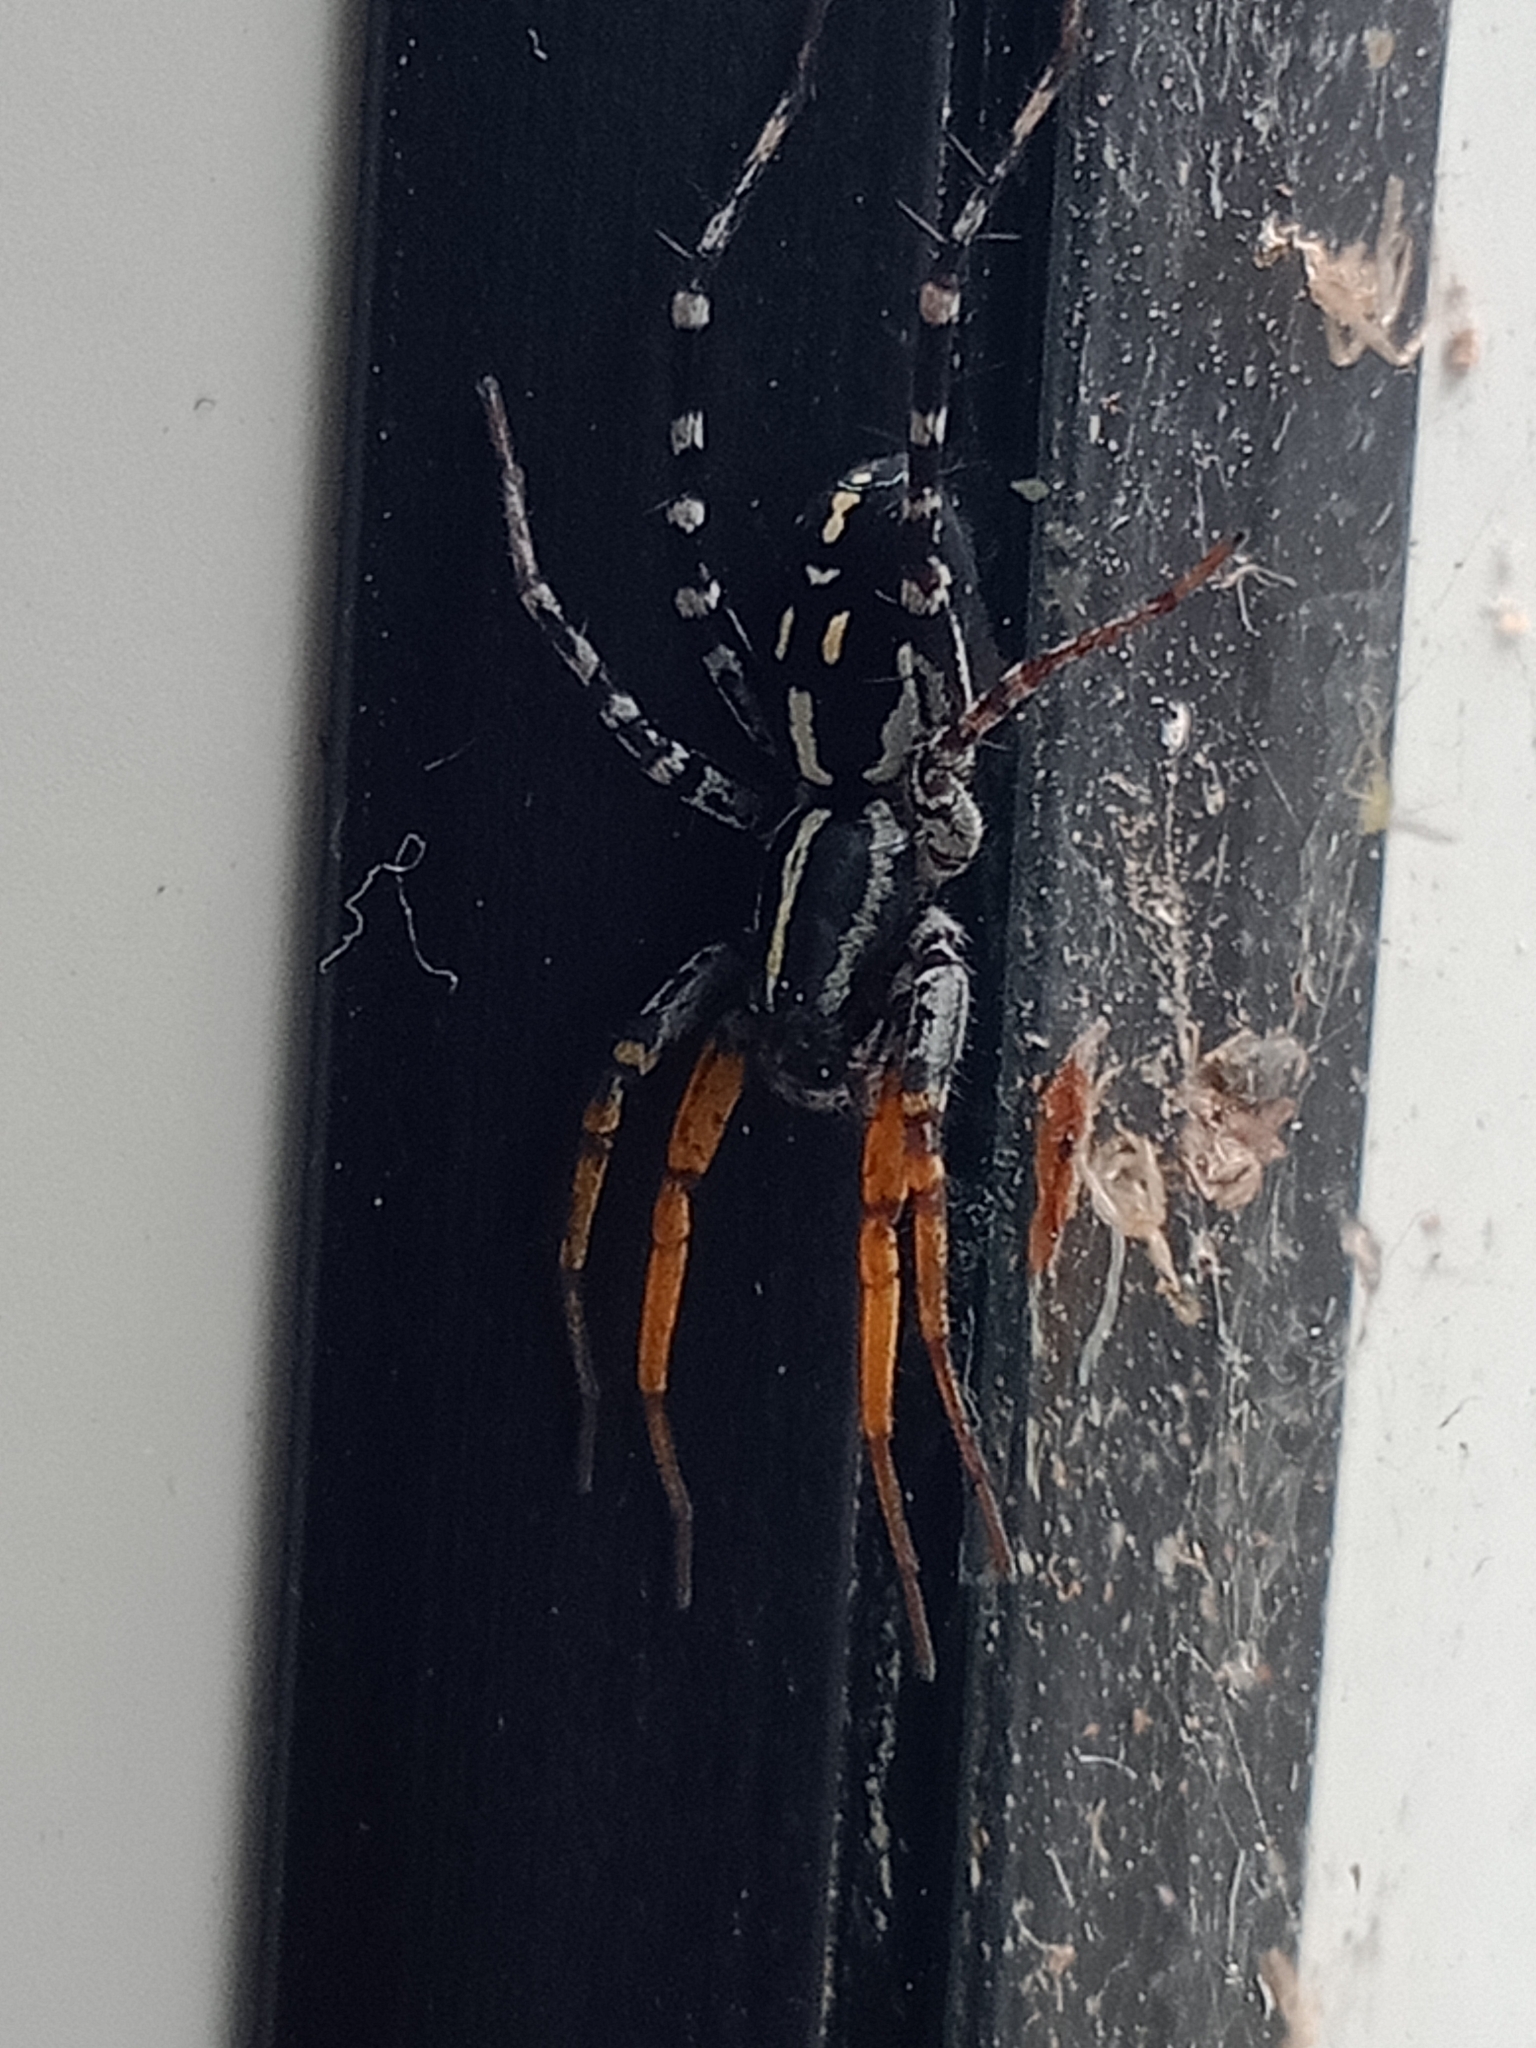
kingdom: Animalia
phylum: Arthropoda
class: Arachnida
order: Araneae
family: Corinnidae
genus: Nyssus
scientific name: Nyssus coloripes
